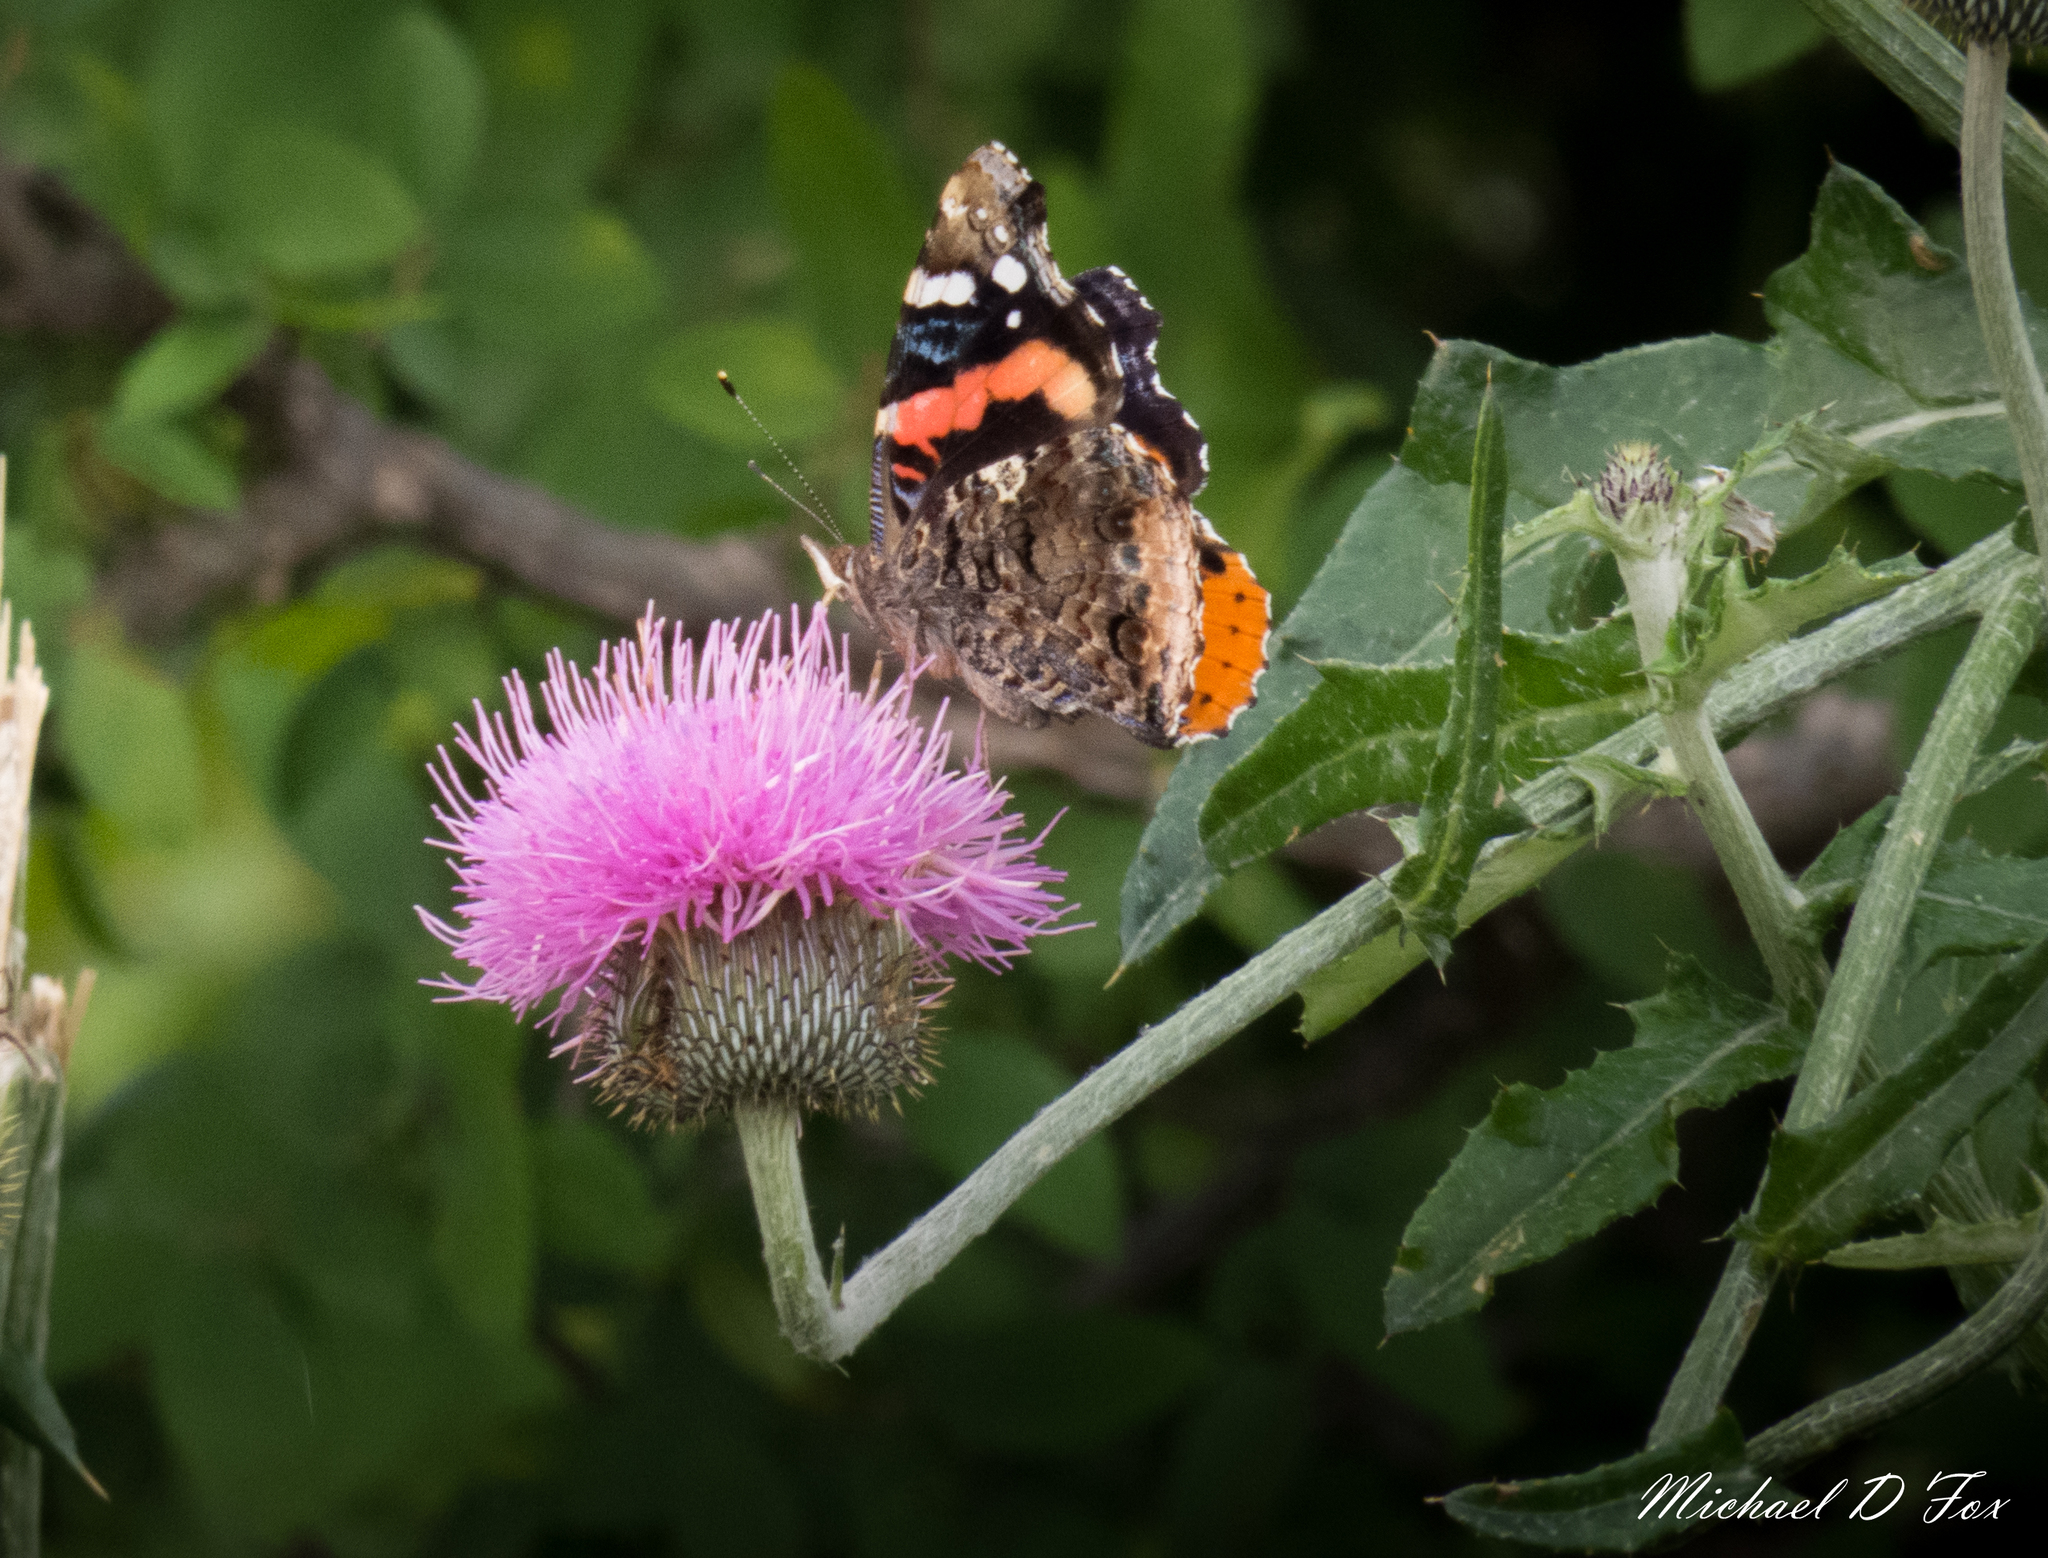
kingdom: Animalia
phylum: Arthropoda
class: Insecta
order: Lepidoptera
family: Nymphalidae
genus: Vanessa
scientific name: Vanessa atalanta
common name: Red admiral
